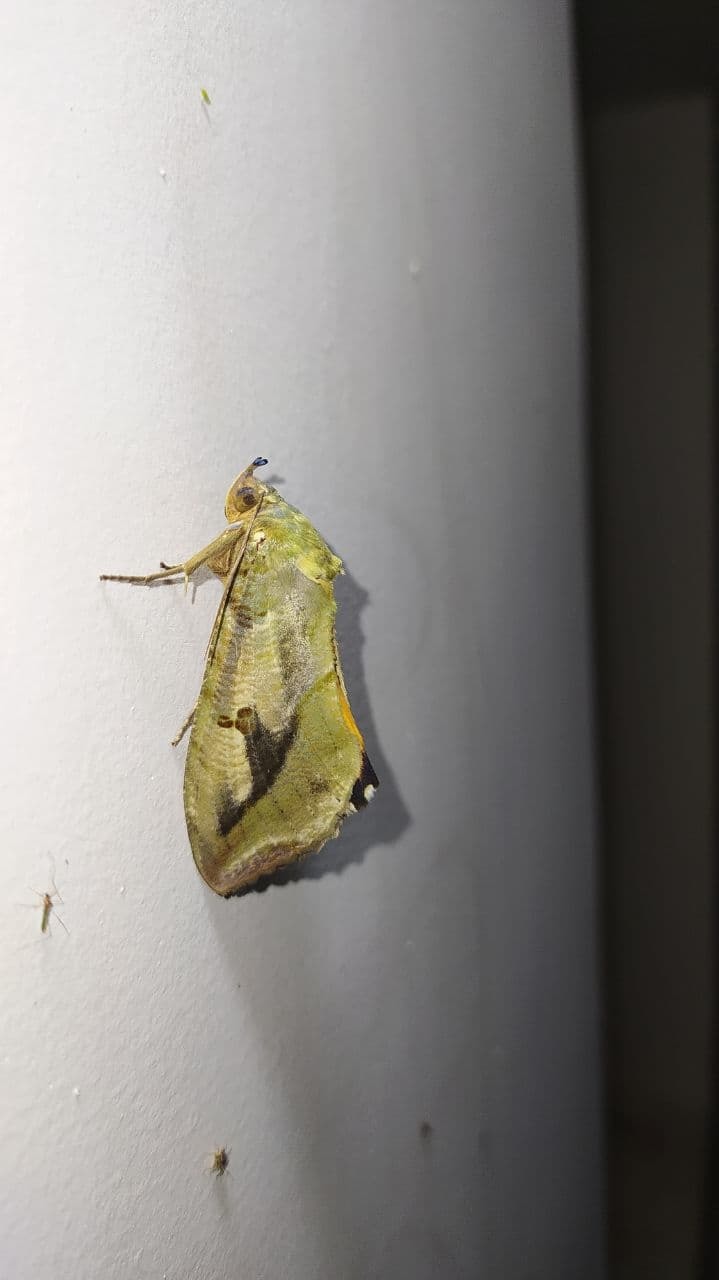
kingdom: Animalia
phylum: Arthropoda
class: Insecta
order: Lepidoptera
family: Erebidae
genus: Eudocima
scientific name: Eudocima materna
